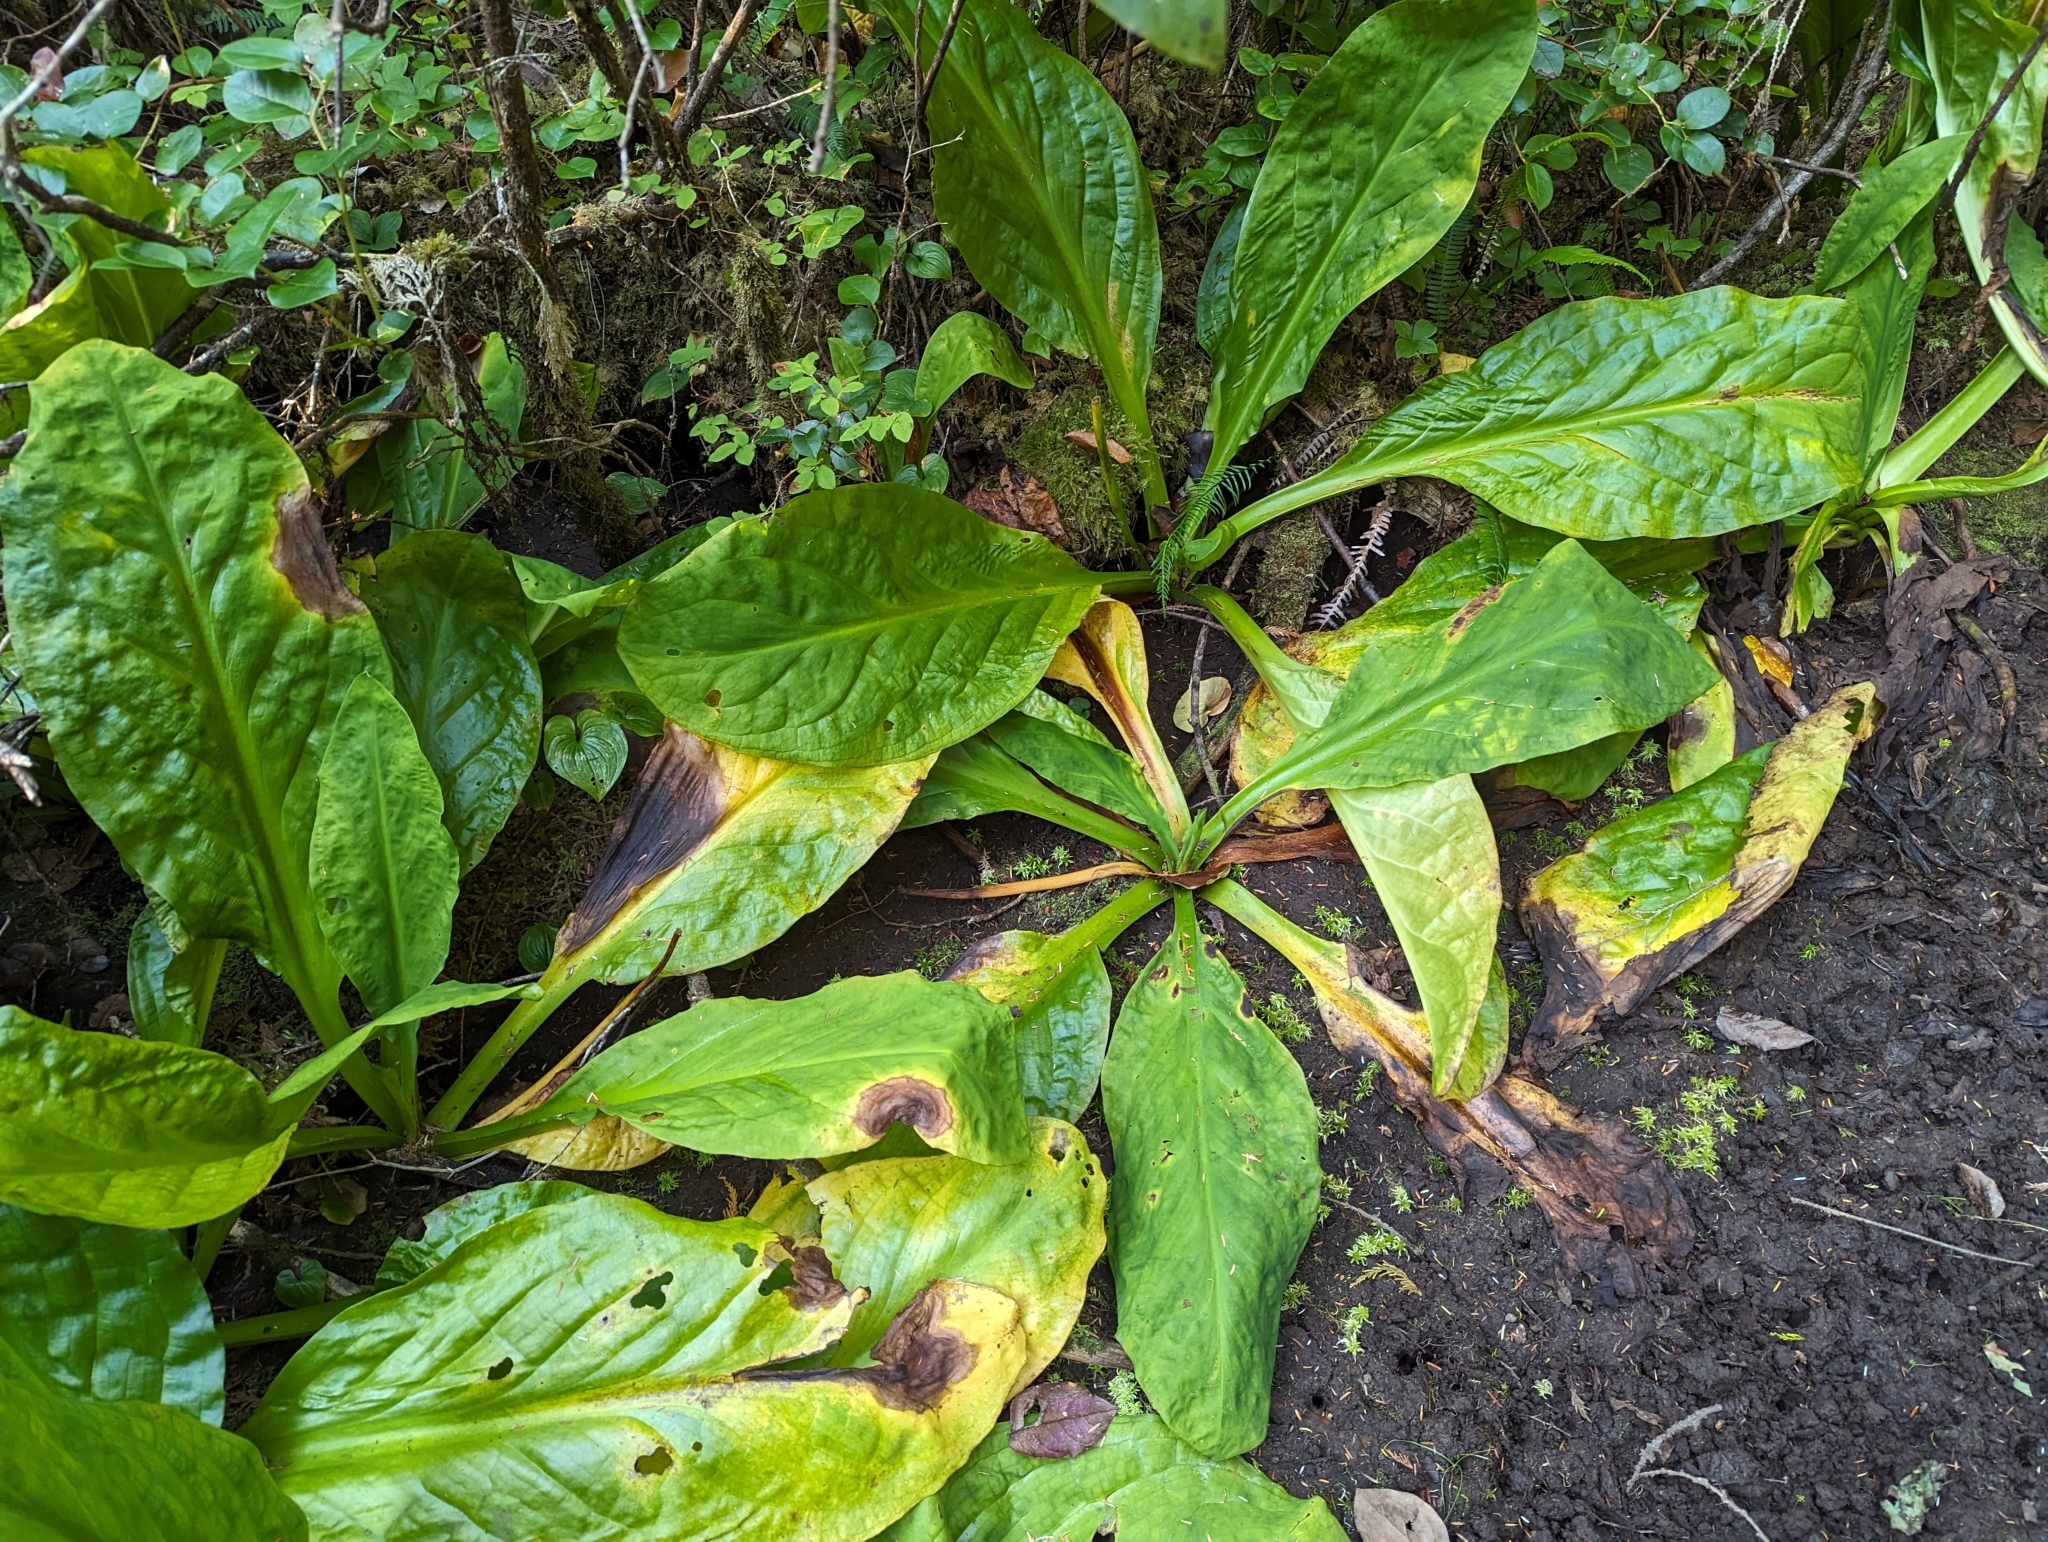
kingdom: Plantae
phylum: Tracheophyta
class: Liliopsida
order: Alismatales
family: Araceae
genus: Lysichiton
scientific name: Lysichiton americanus
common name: American skunk cabbage
